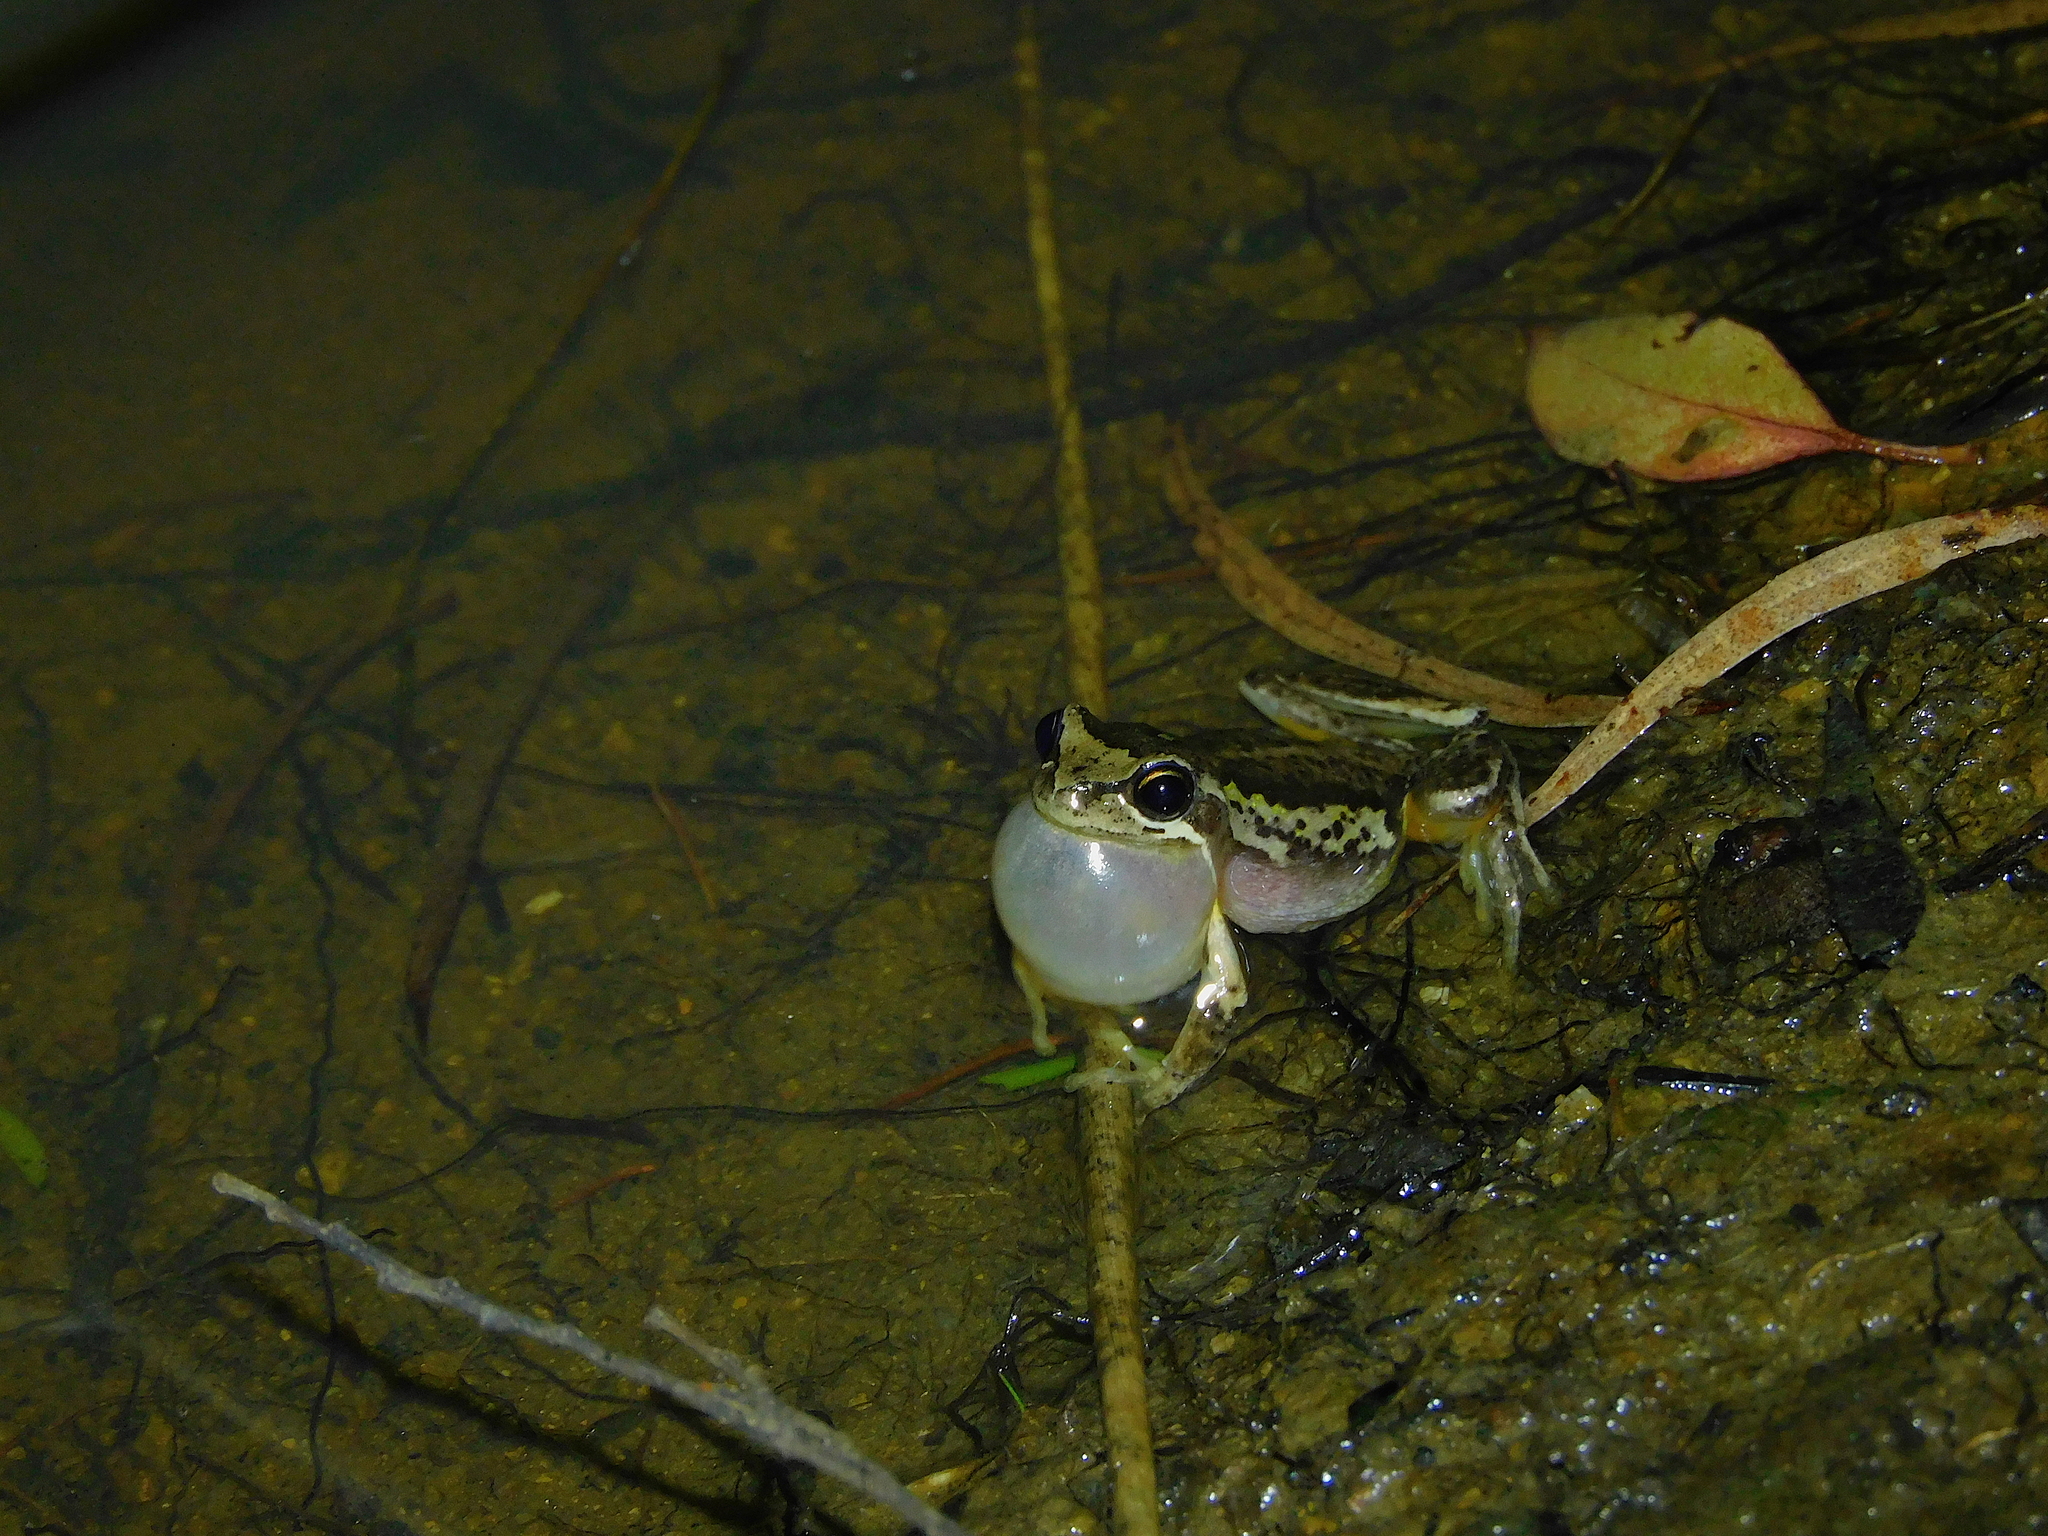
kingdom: Animalia
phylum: Chordata
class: Amphibia
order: Anura
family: Pelodryadidae
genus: Litoria
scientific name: Litoria ewingii
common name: Southern brown tree frog
